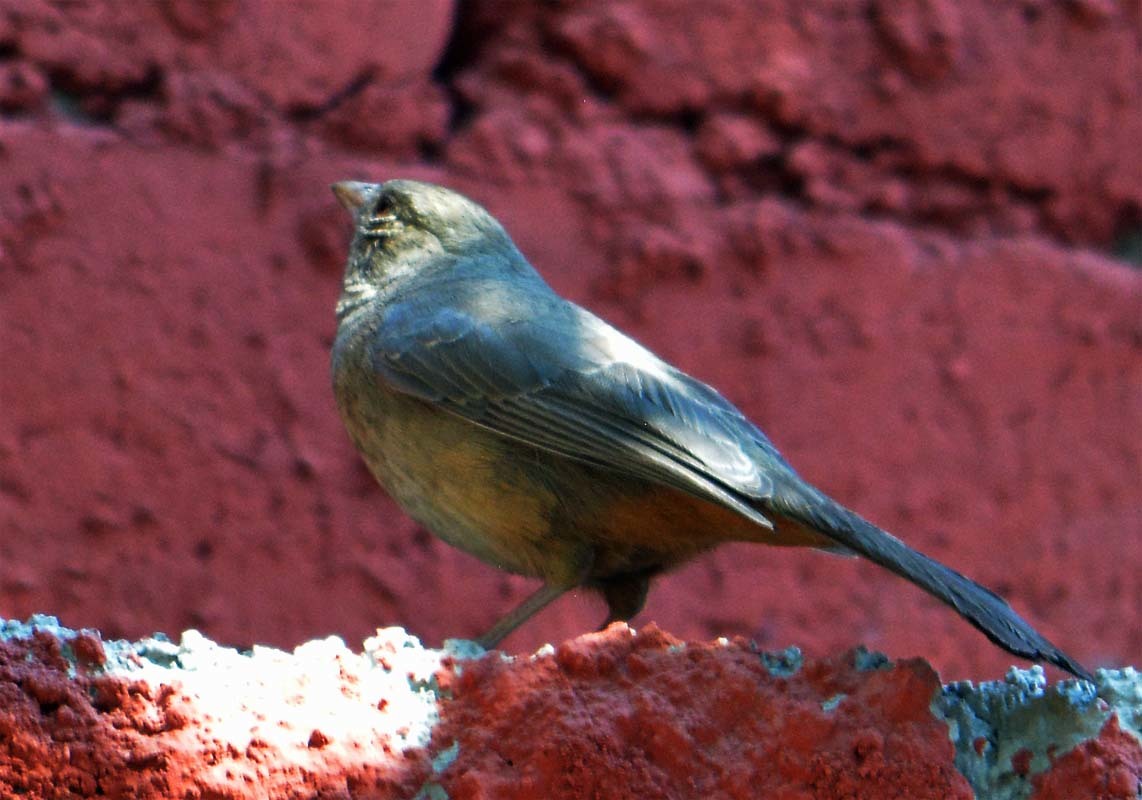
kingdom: Animalia
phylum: Chordata
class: Aves
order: Passeriformes
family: Passerellidae
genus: Melozone
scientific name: Melozone fusca
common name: Canyon towhee
